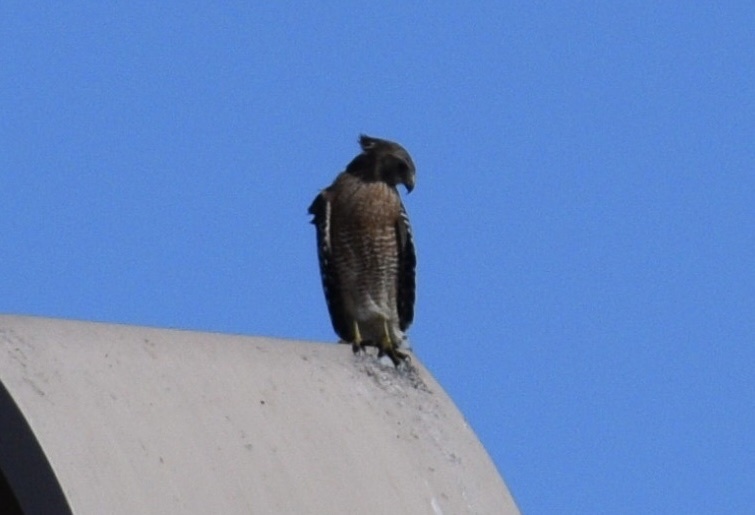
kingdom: Animalia
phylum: Chordata
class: Aves
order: Accipitriformes
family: Accipitridae
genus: Buteo
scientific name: Buteo lineatus
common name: Red-shouldered hawk
